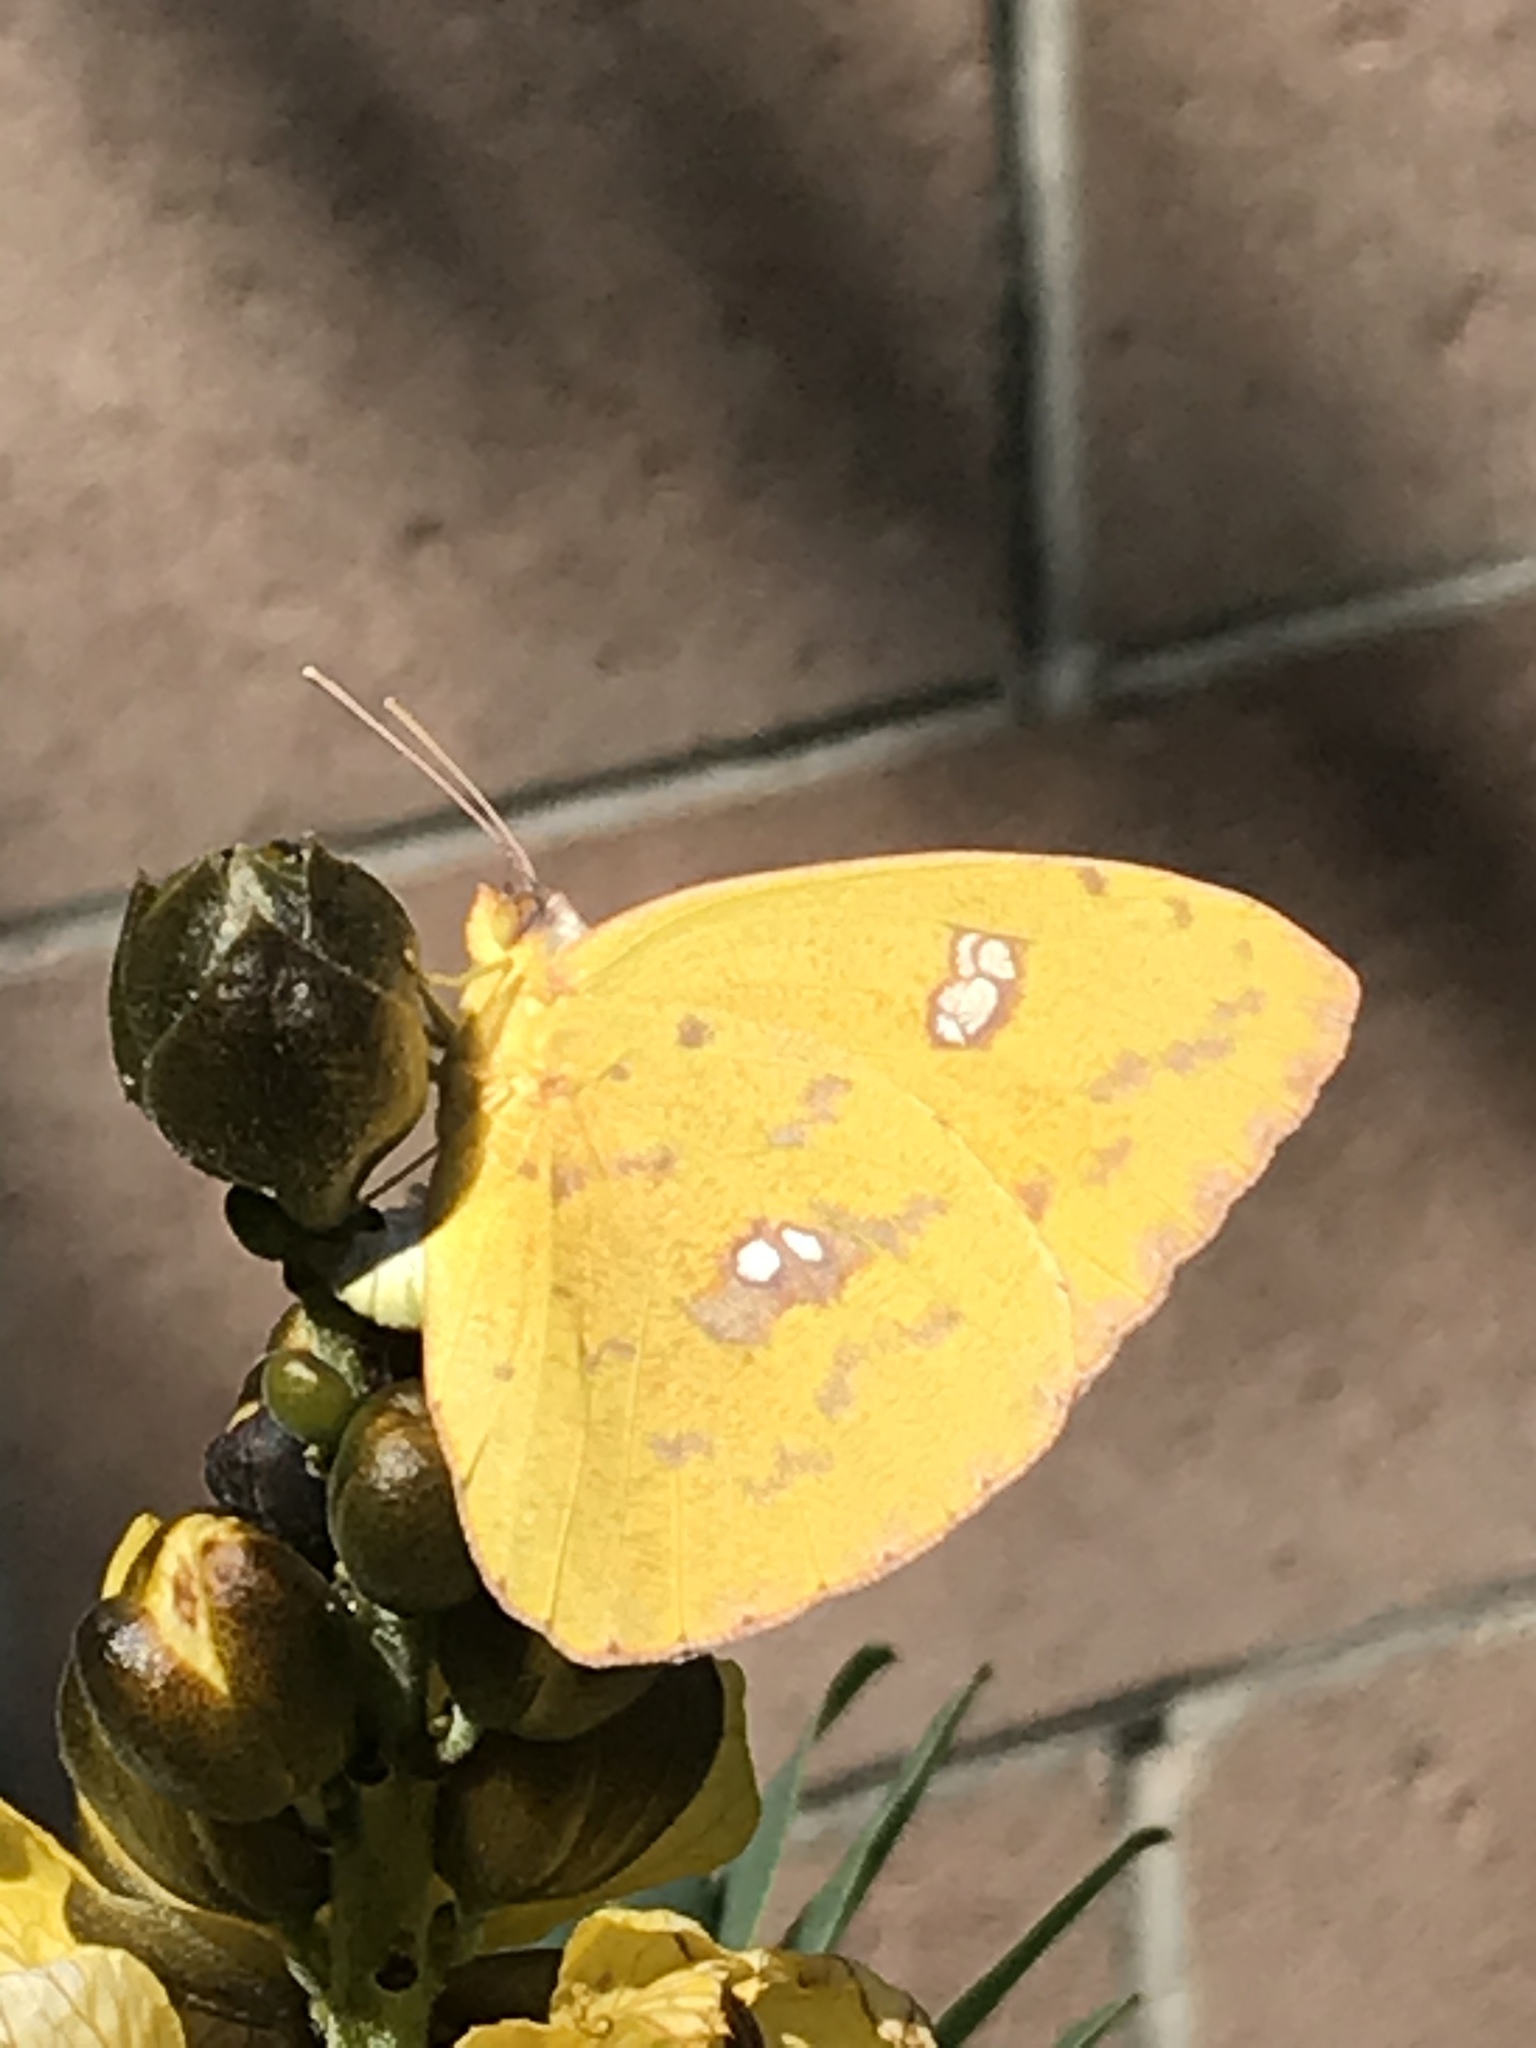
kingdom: Animalia
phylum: Arthropoda
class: Insecta
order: Lepidoptera
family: Pieridae
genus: Phoebis
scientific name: Phoebis sennae
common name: Cloudless sulphur
